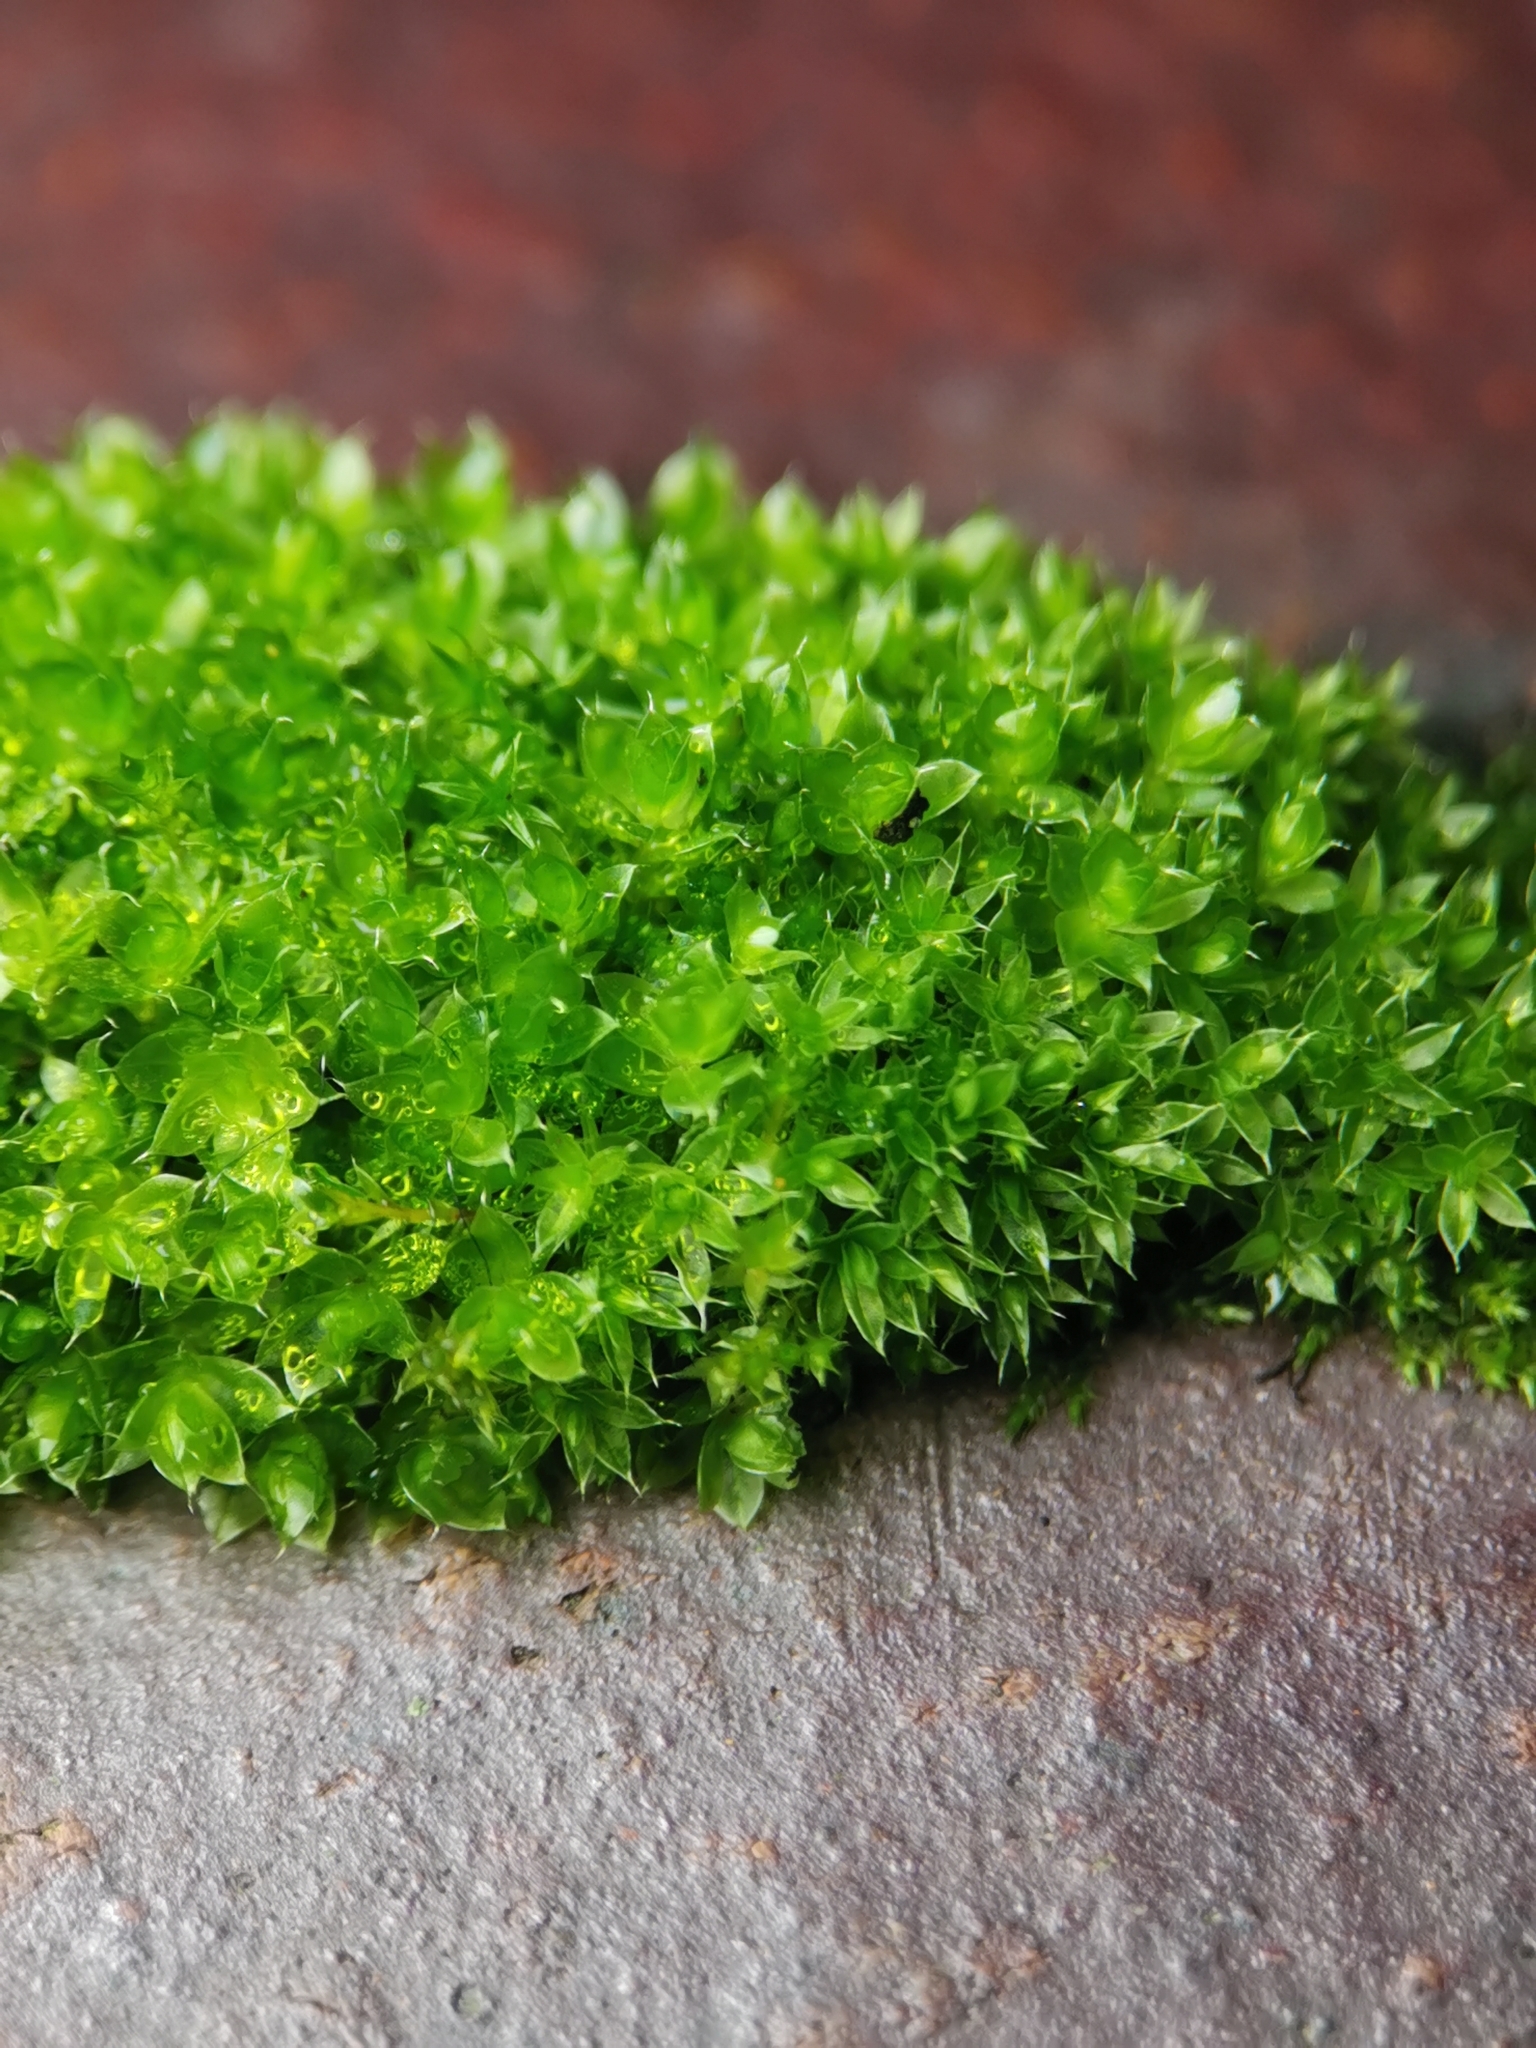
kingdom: Plantae
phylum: Bryophyta
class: Bryopsida
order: Bryales
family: Bryaceae
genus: Rosulabryum
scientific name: Rosulabryum capillare
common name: Capillary thread-moss
